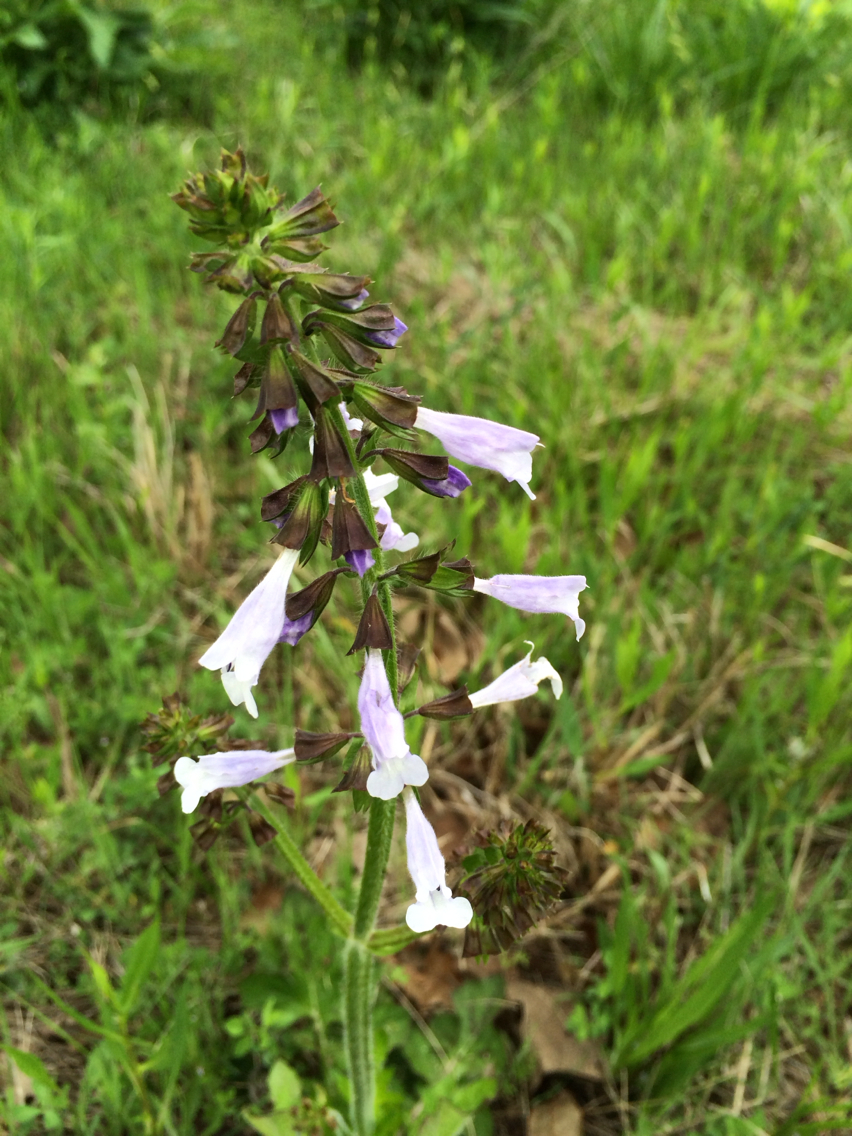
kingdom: Plantae
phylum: Tracheophyta
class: Magnoliopsida
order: Lamiales
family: Lamiaceae
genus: Salvia
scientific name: Salvia lyrata
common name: Cancerweed
